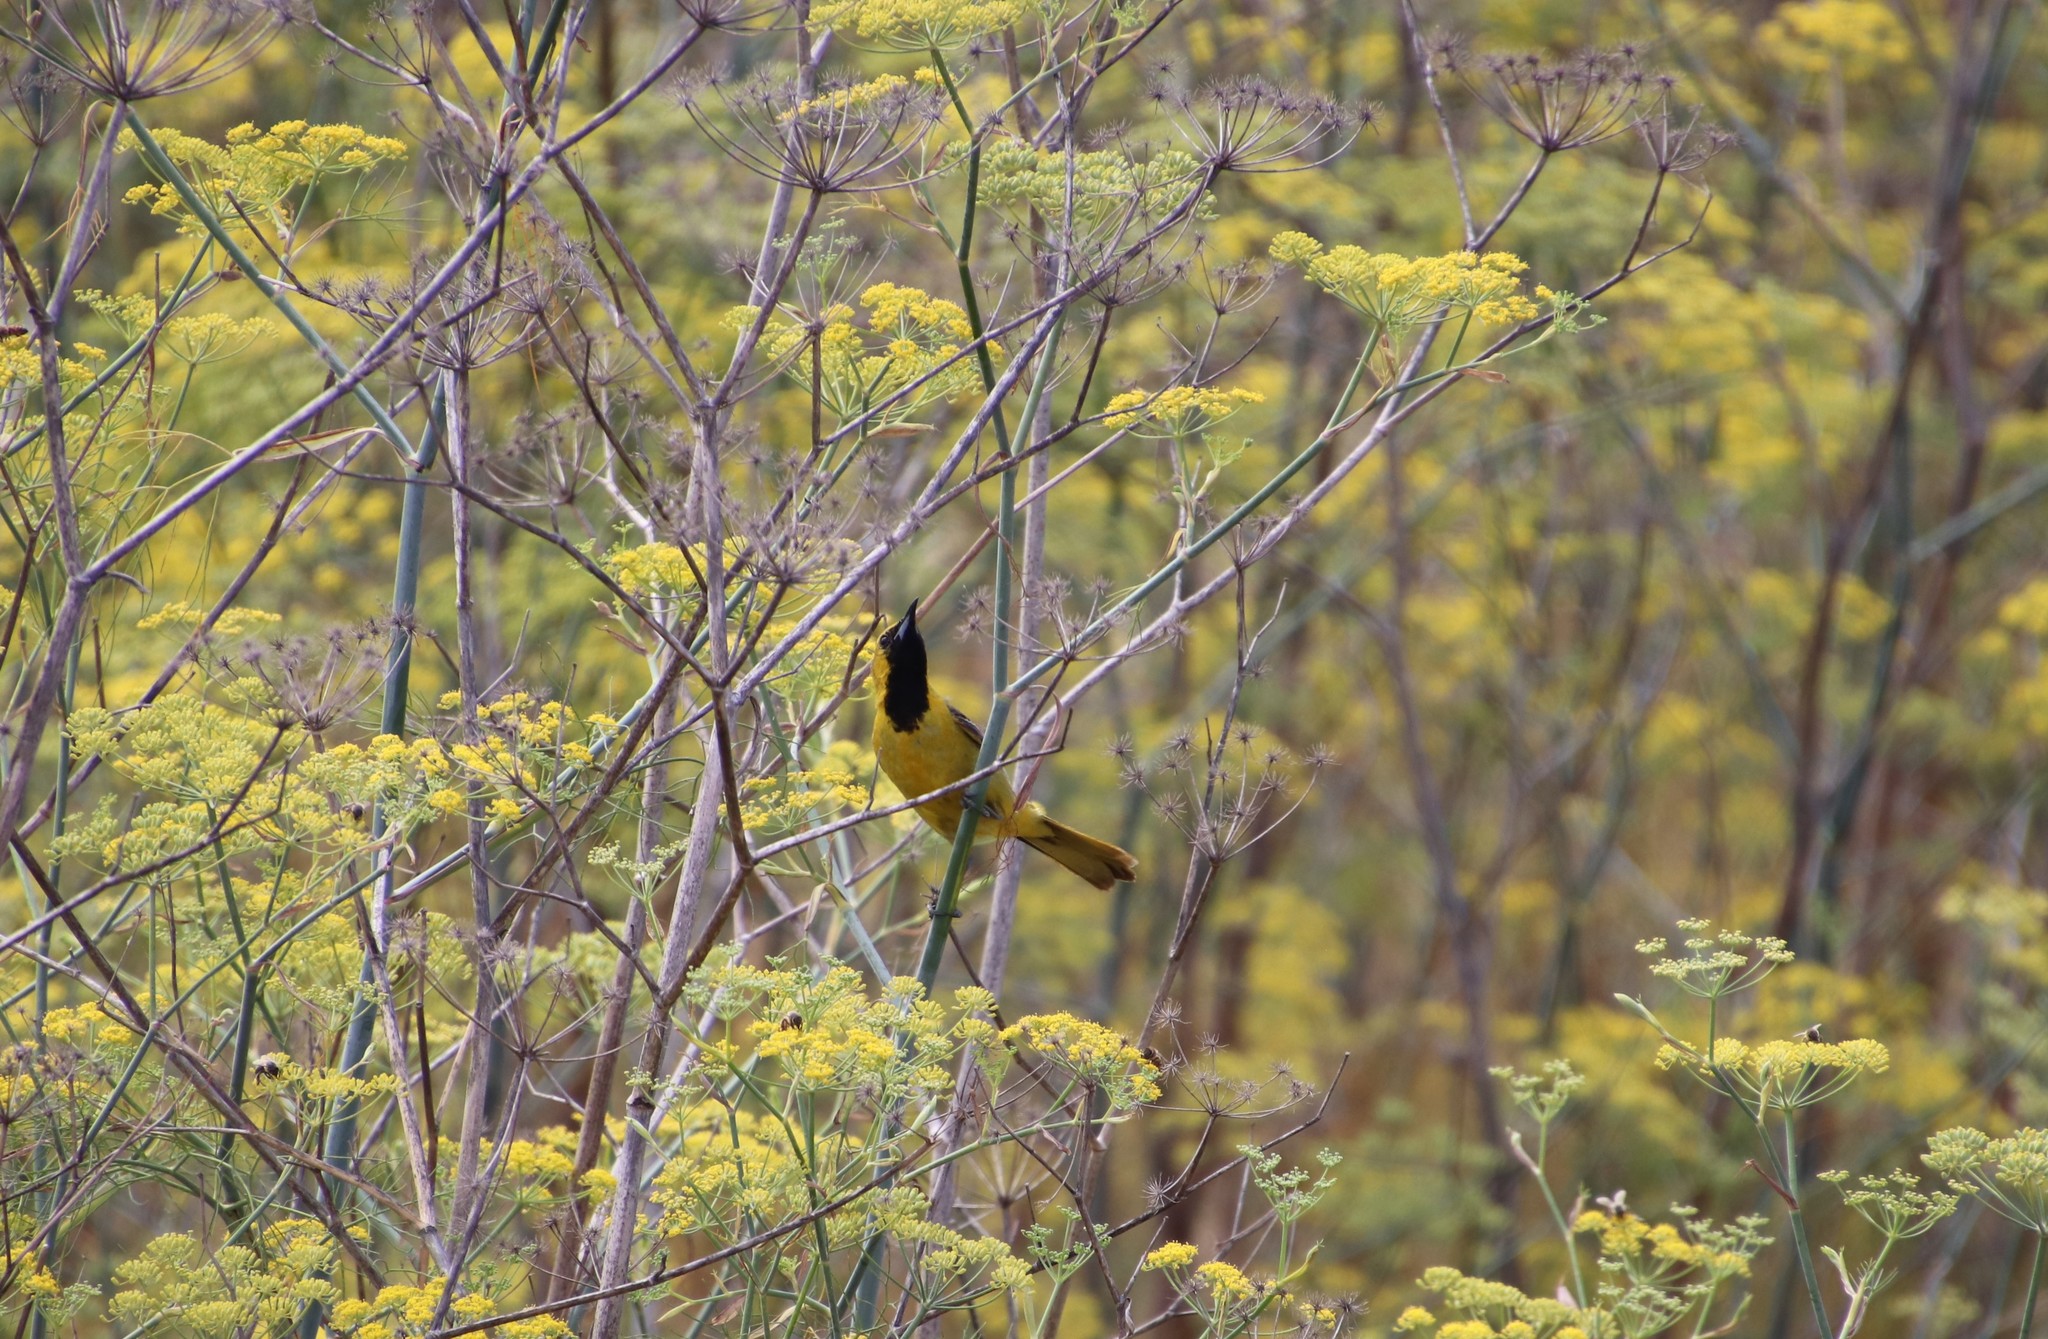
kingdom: Animalia
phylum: Chordata
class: Aves
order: Passeriformes
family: Icteridae
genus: Icterus
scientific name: Icterus cucullatus
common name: Hooded oriole
